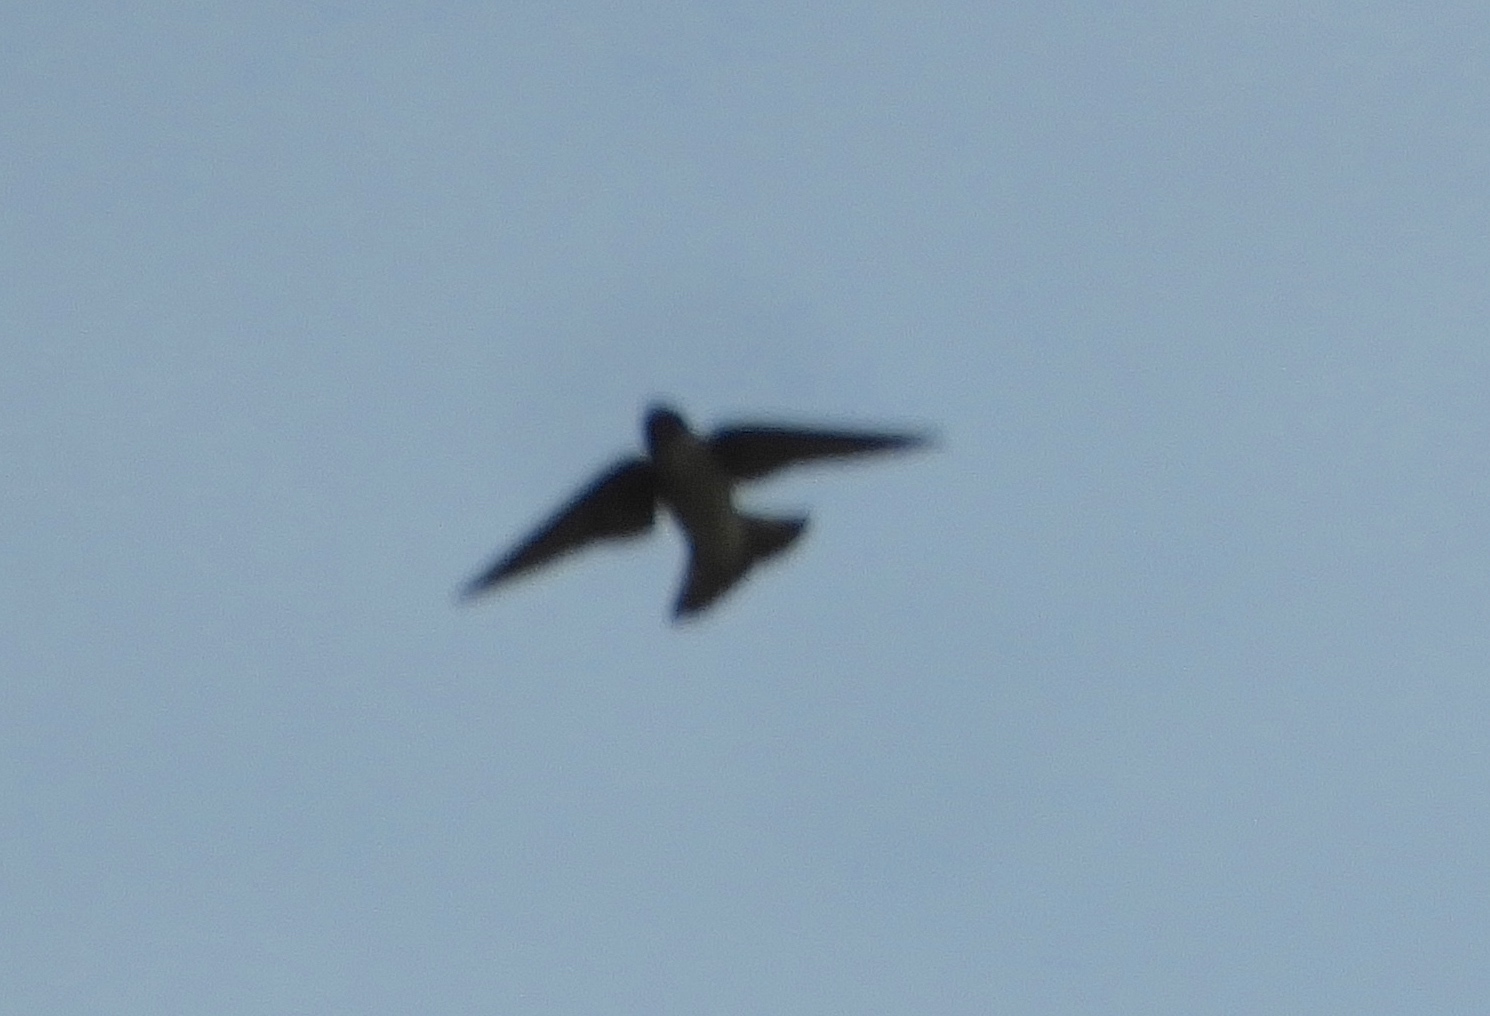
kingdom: Animalia
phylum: Chordata
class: Aves
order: Passeriformes
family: Hirundinidae
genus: Progne
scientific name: Progne
